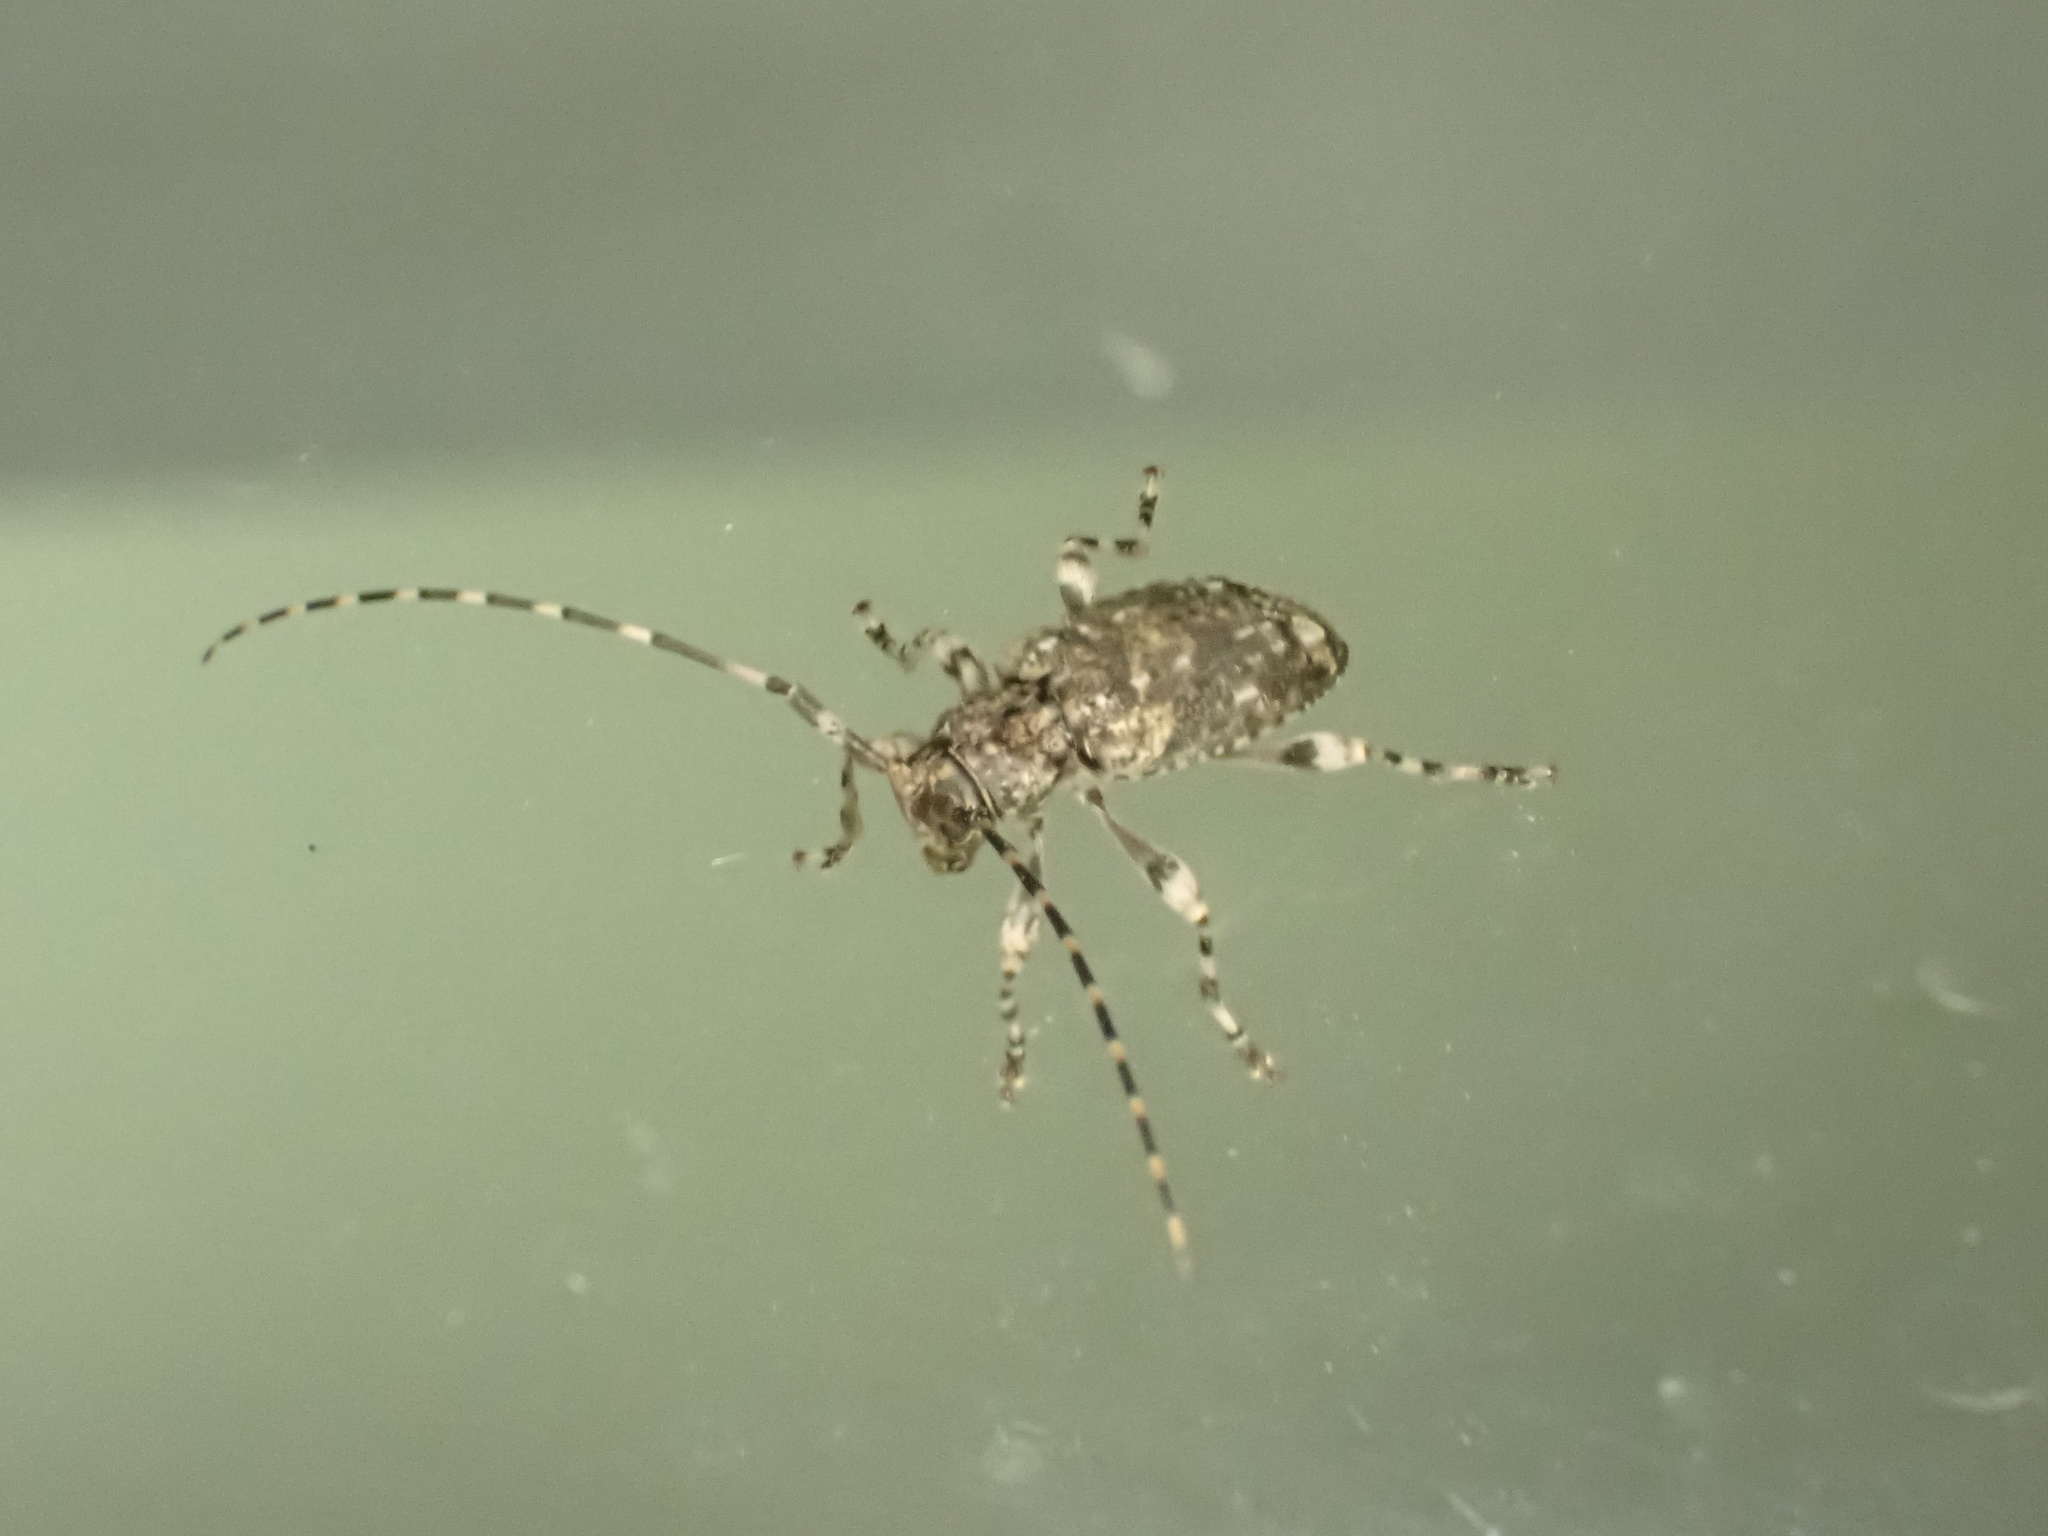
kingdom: Animalia
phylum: Arthropoda
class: Insecta
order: Coleoptera
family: Cerambycidae
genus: Astyleiopus
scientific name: Astyleiopus variegatus
